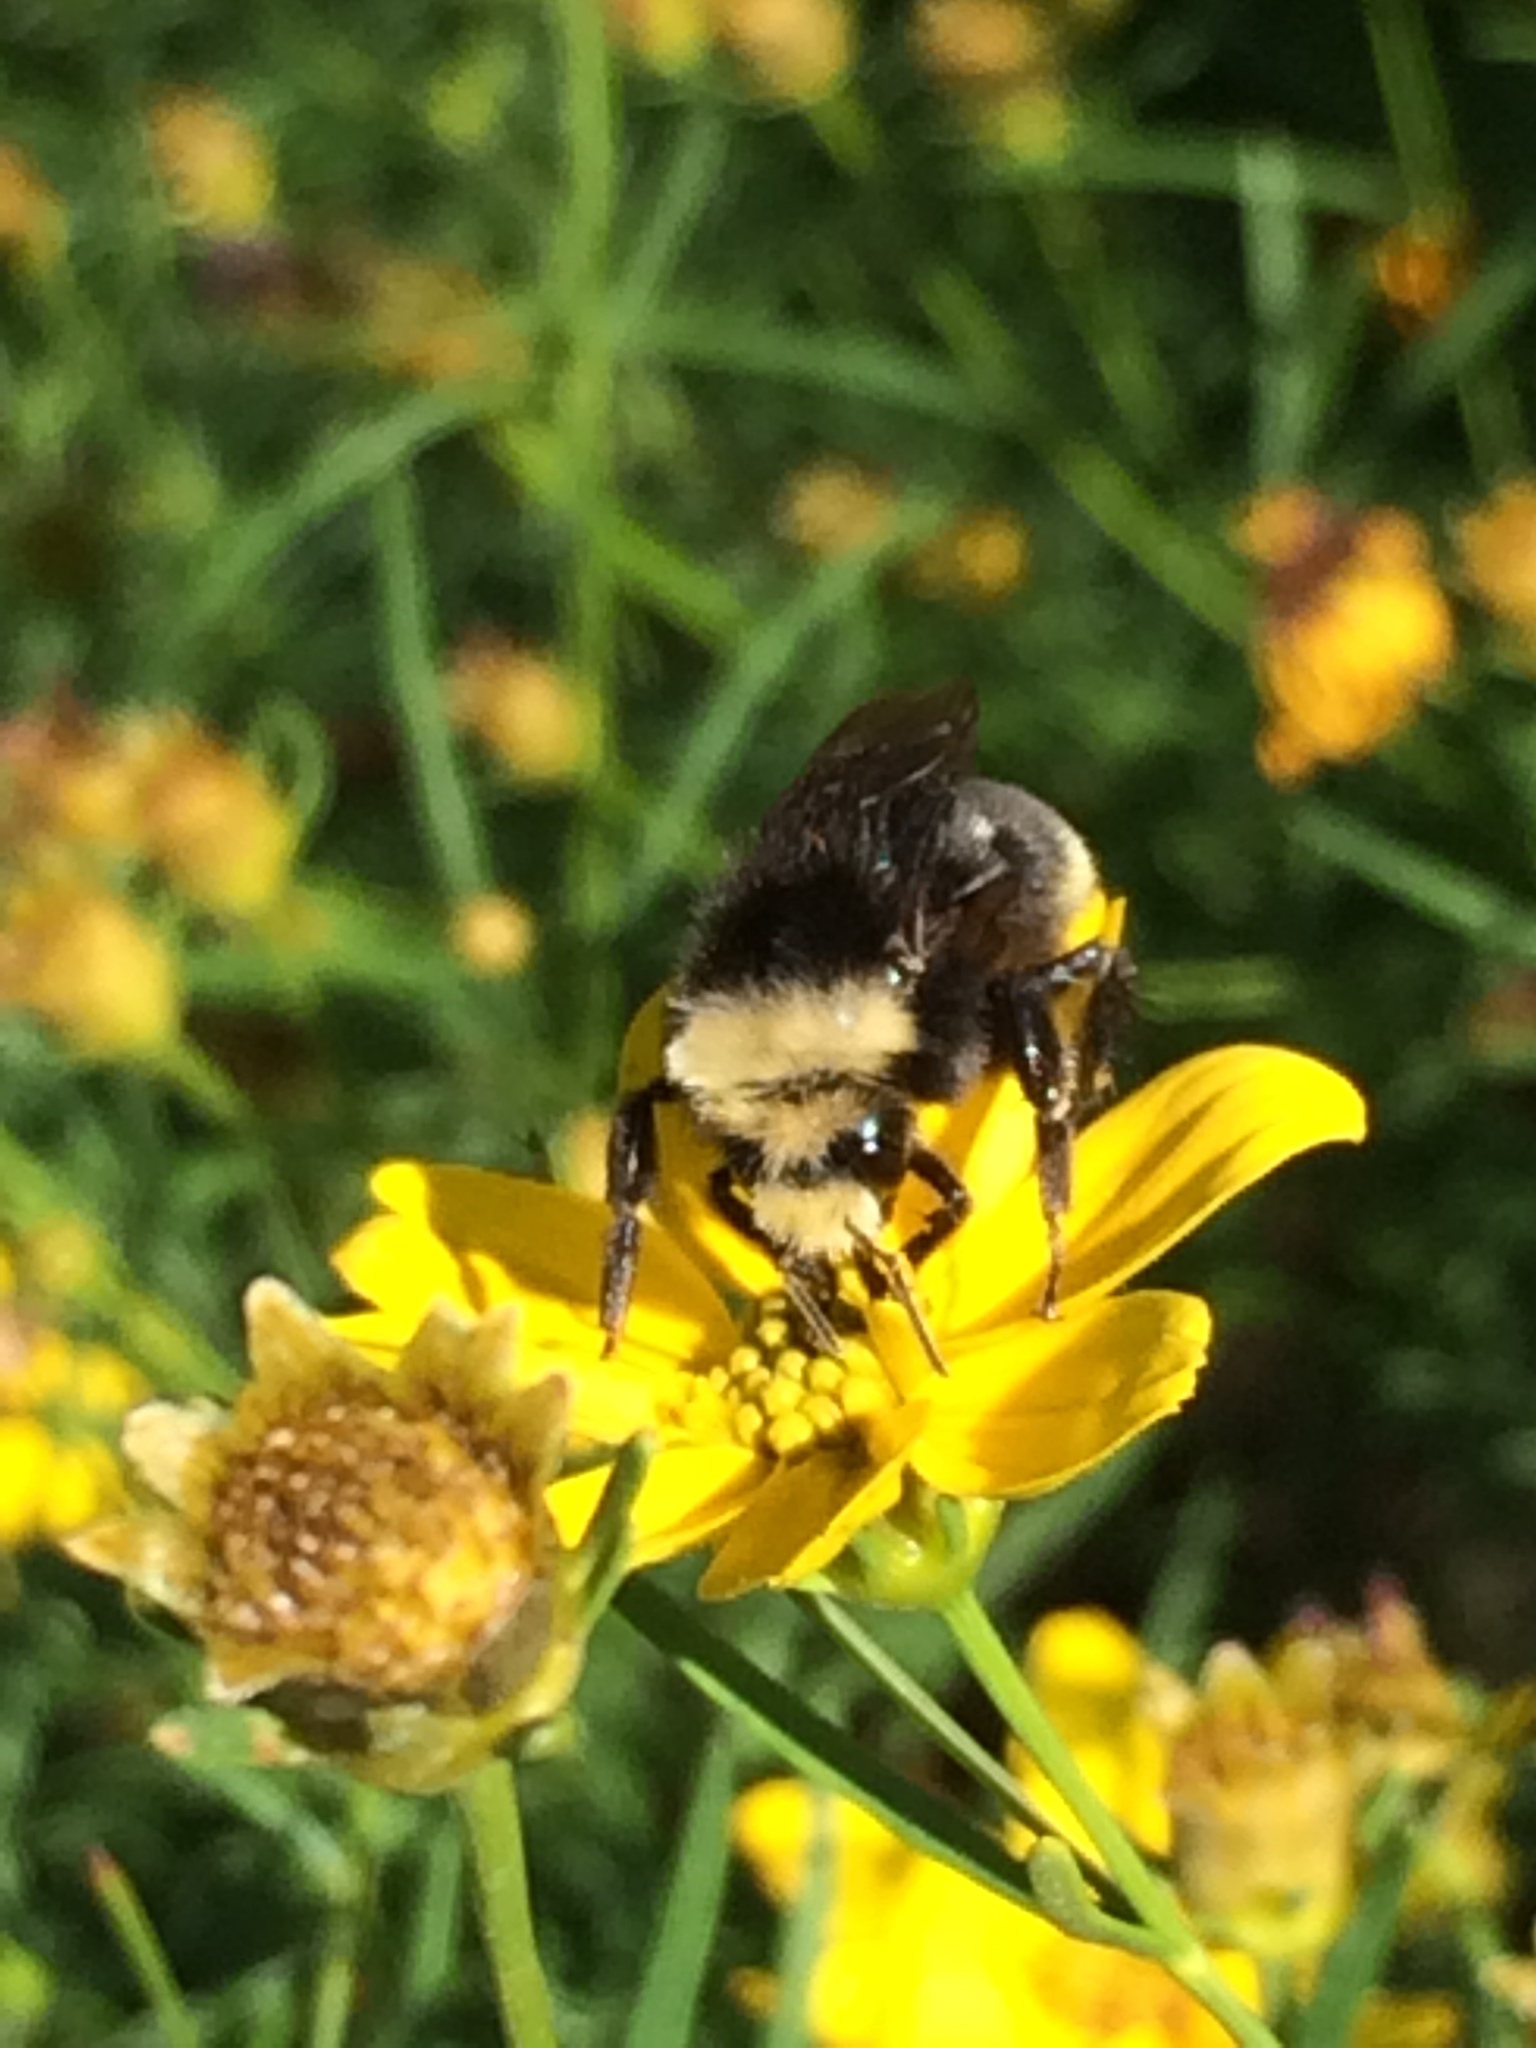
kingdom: Animalia
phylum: Arthropoda
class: Insecta
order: Hymenoptera
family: Apidae
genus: Bombus
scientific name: Bombus vosnesenskii
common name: Vosnesensky bumble bee
